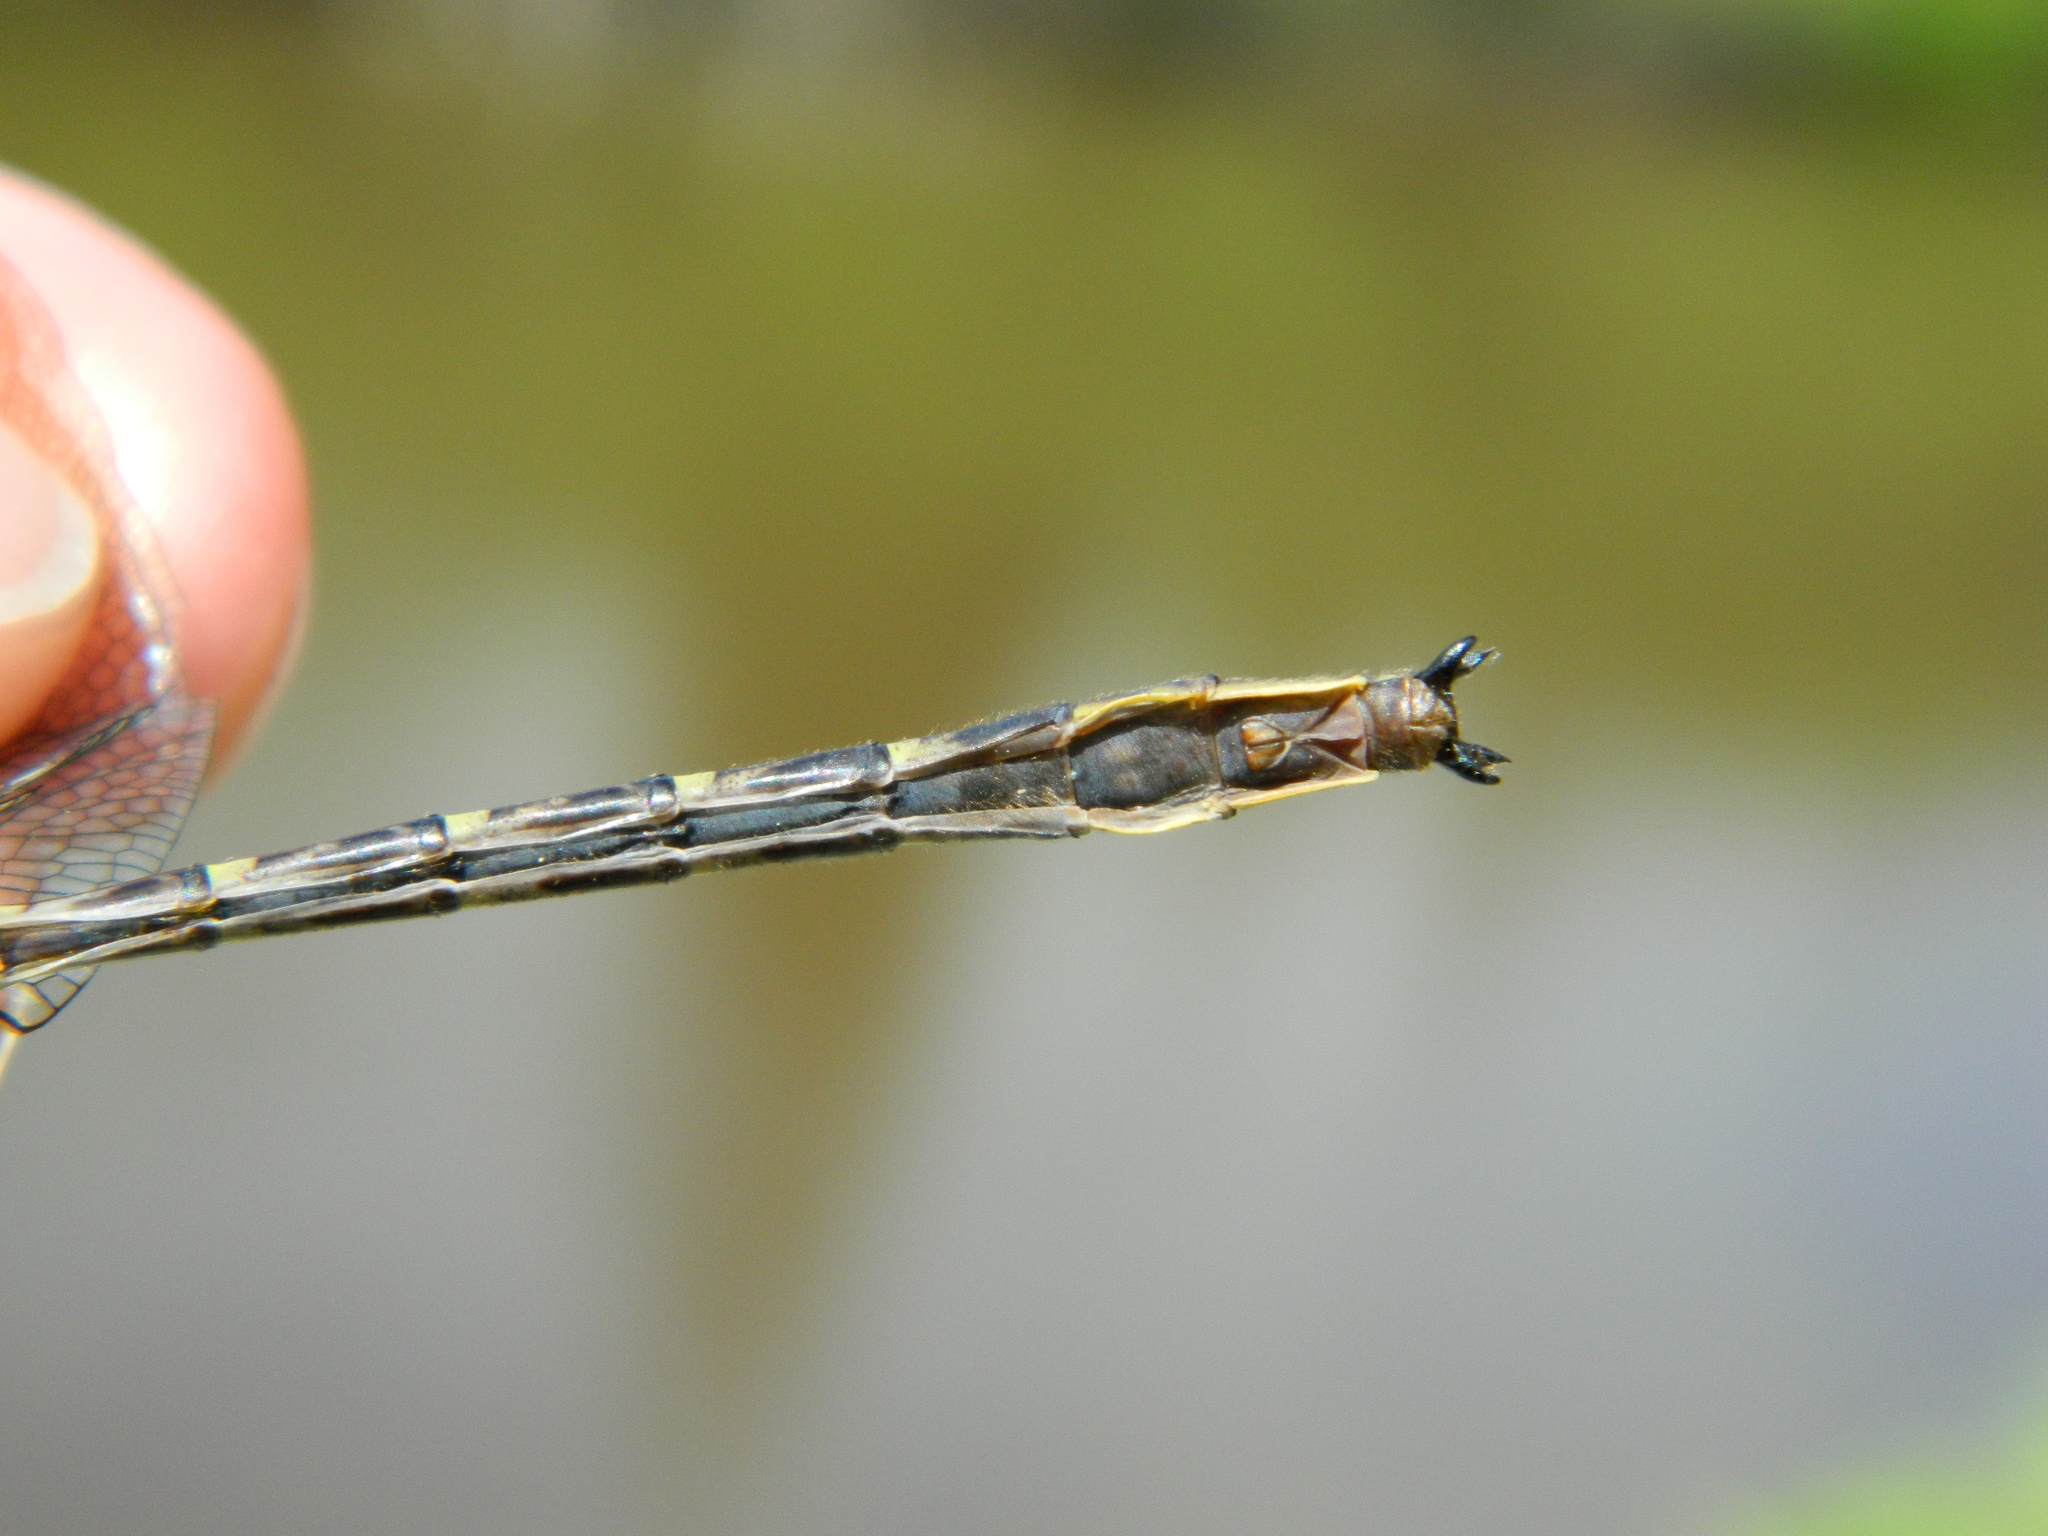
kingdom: Animalia
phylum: Arthropoda
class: Insecta
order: Odonata
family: Gomphidae
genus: Phanogomphus
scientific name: Phanogomphus lividus
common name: Ashy clubtail
